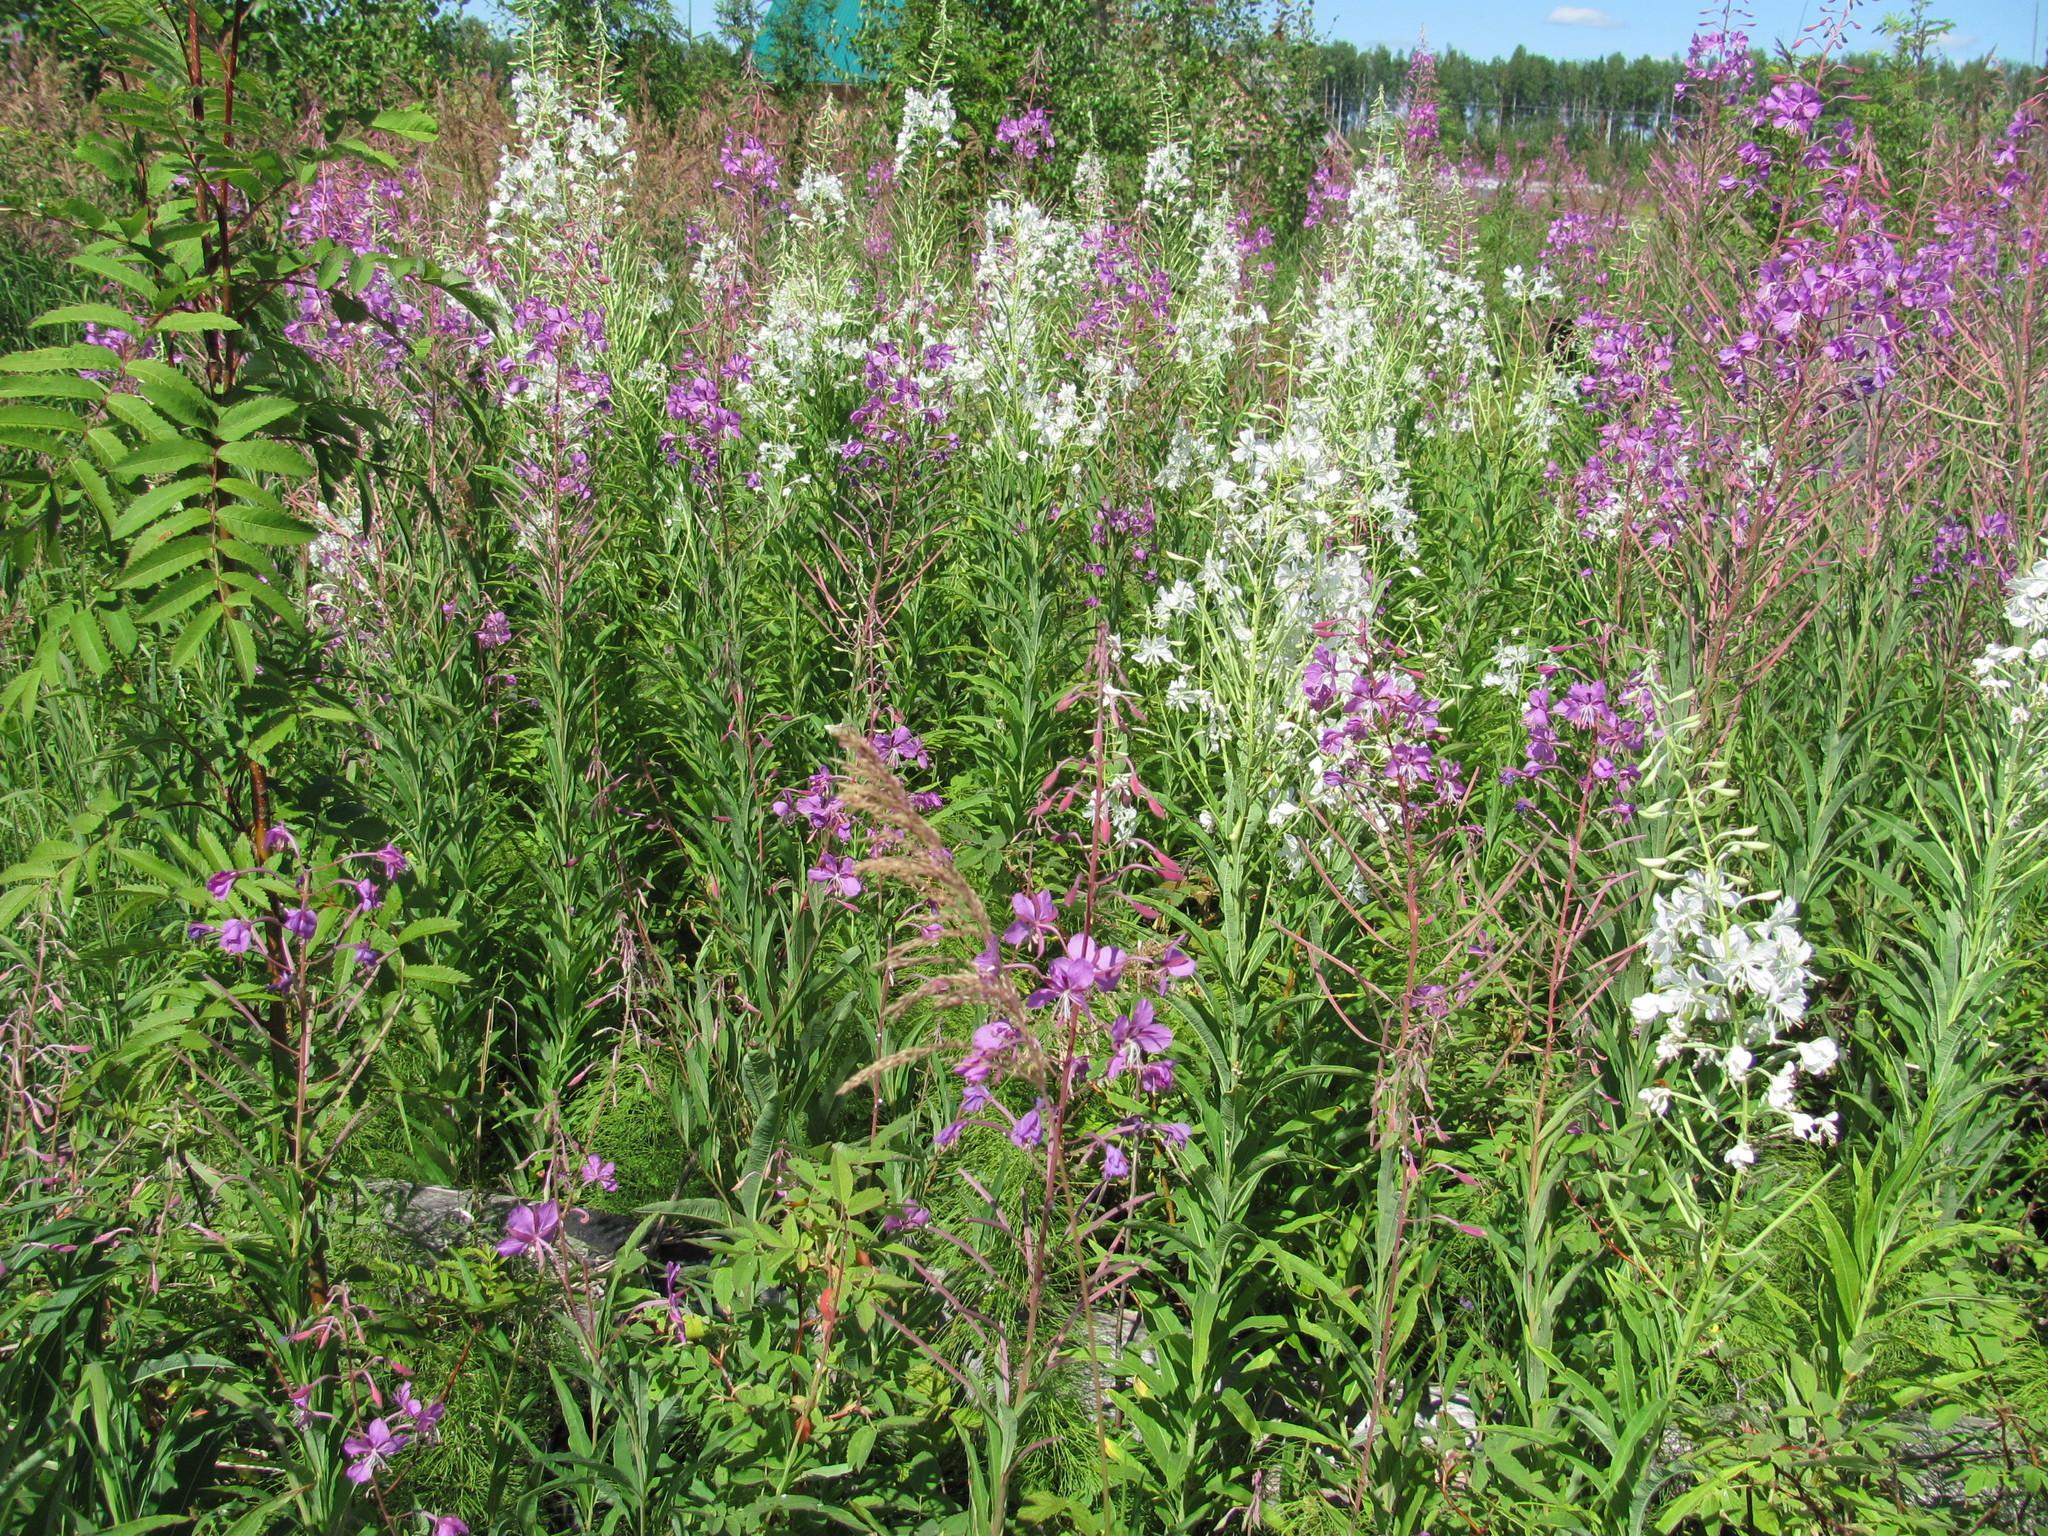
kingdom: Plantae
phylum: Tracheophyta
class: Magnoliopsida
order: Myrtales
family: Onagraceae
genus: Chamaenerion
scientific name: Chamaenerion angustifolium
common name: Fireweed
